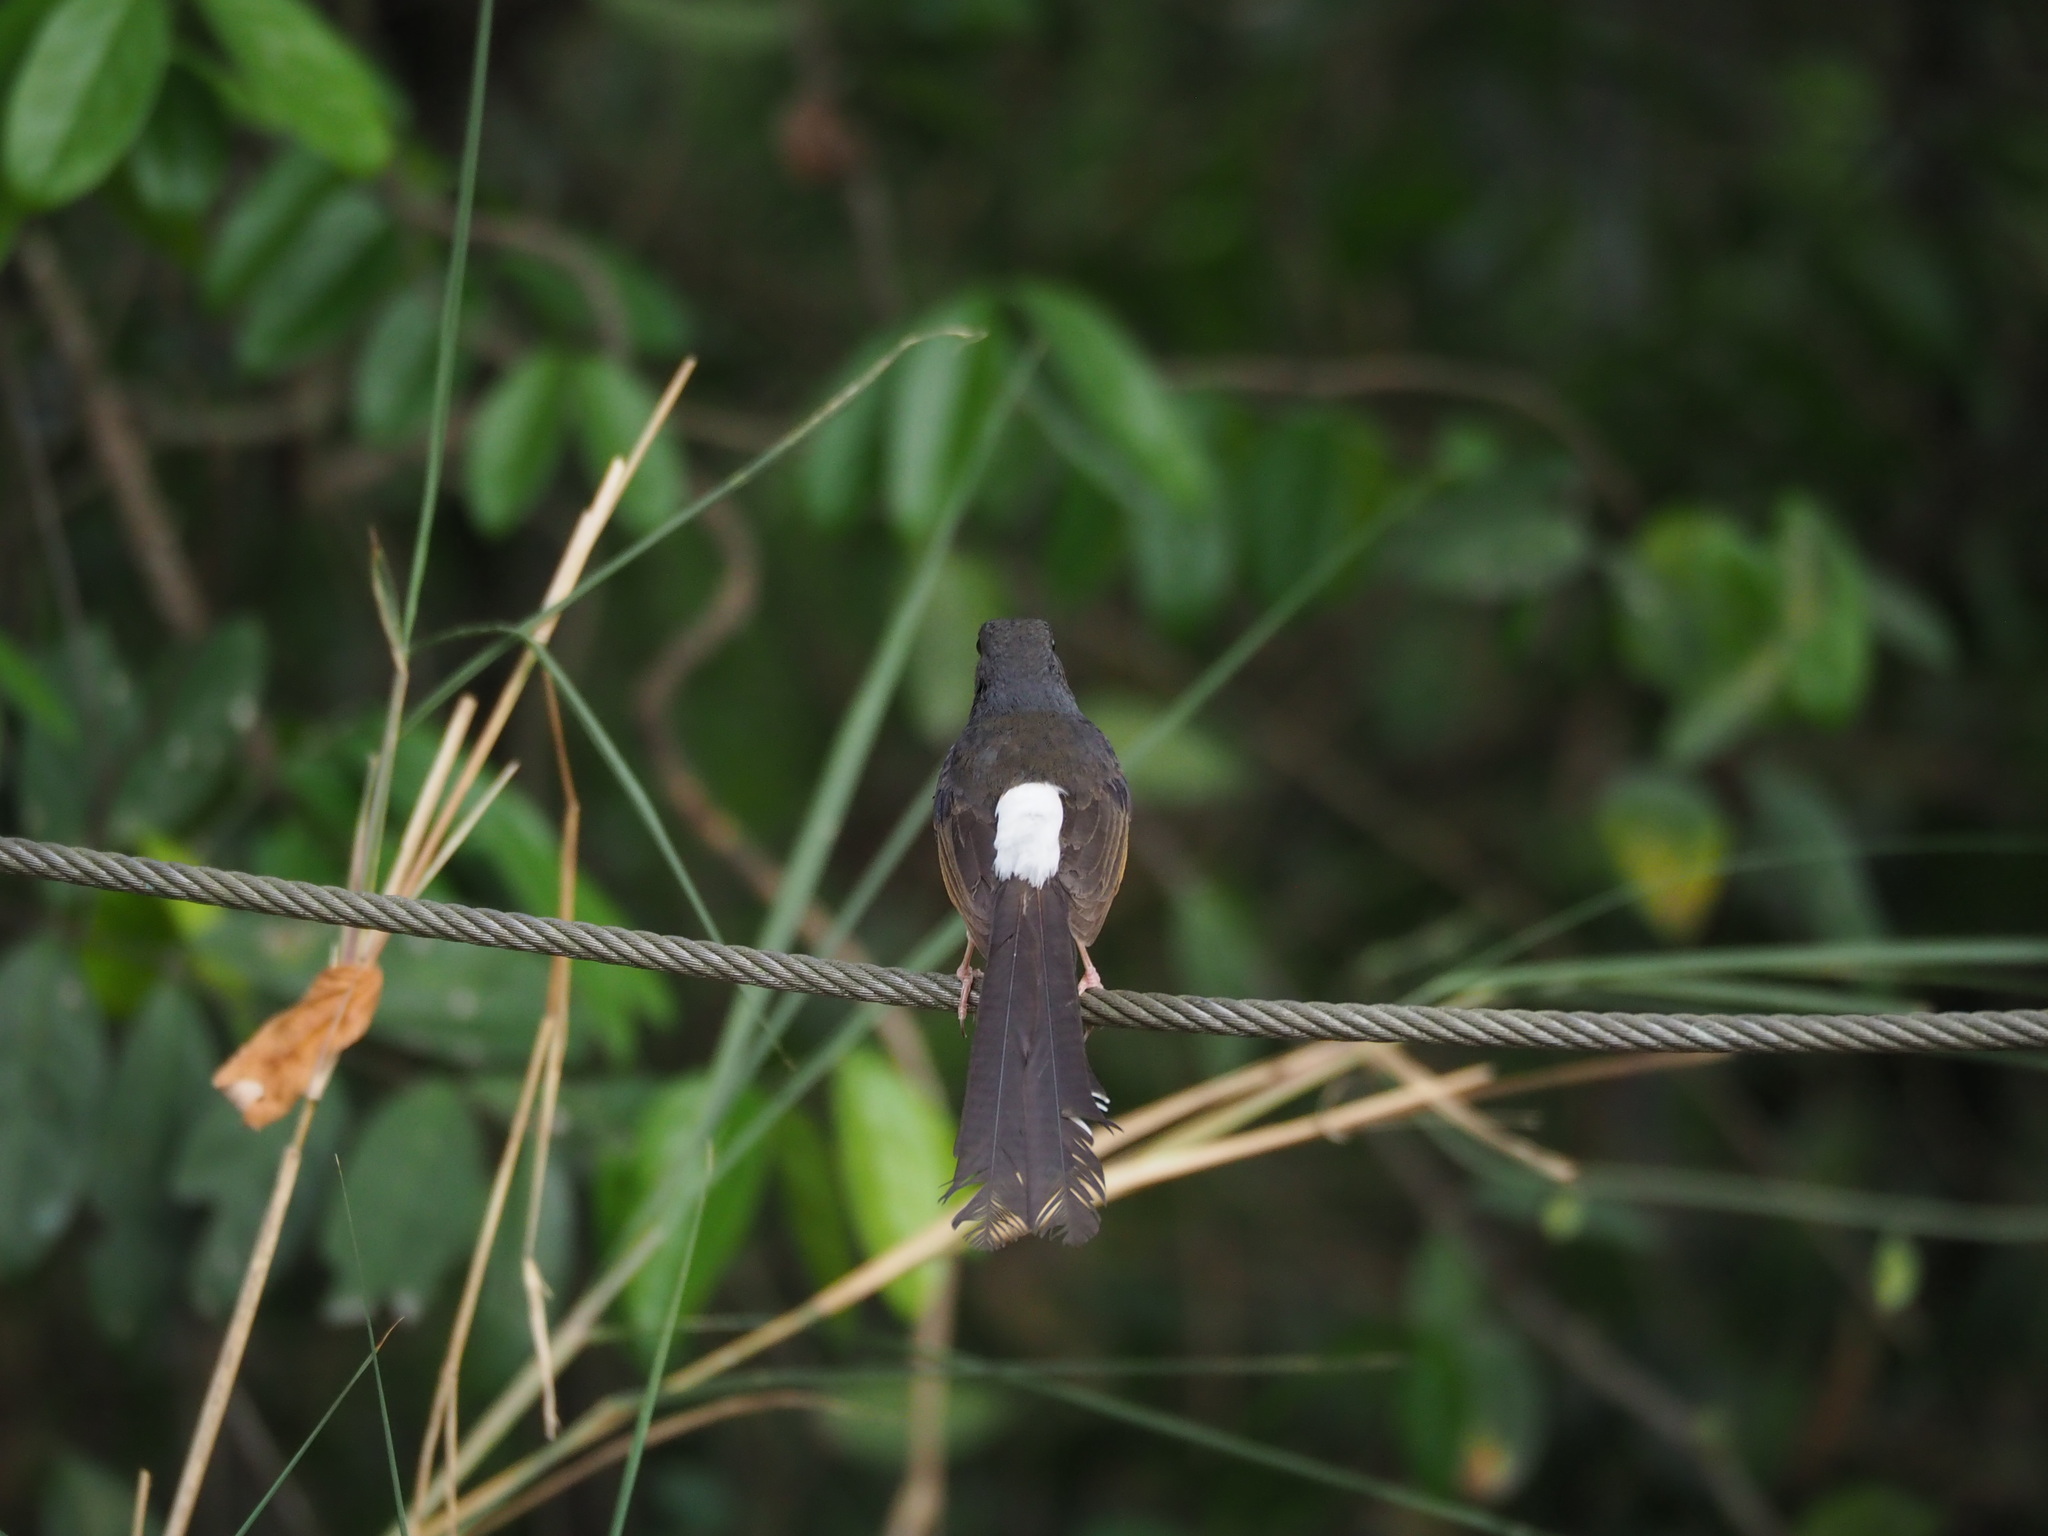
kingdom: Animalia
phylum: Chordata
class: Aves
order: Passeriformes
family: Muscicapidae
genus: Copsychus
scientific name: Copsychus malabaricus
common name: White-rumped shama
